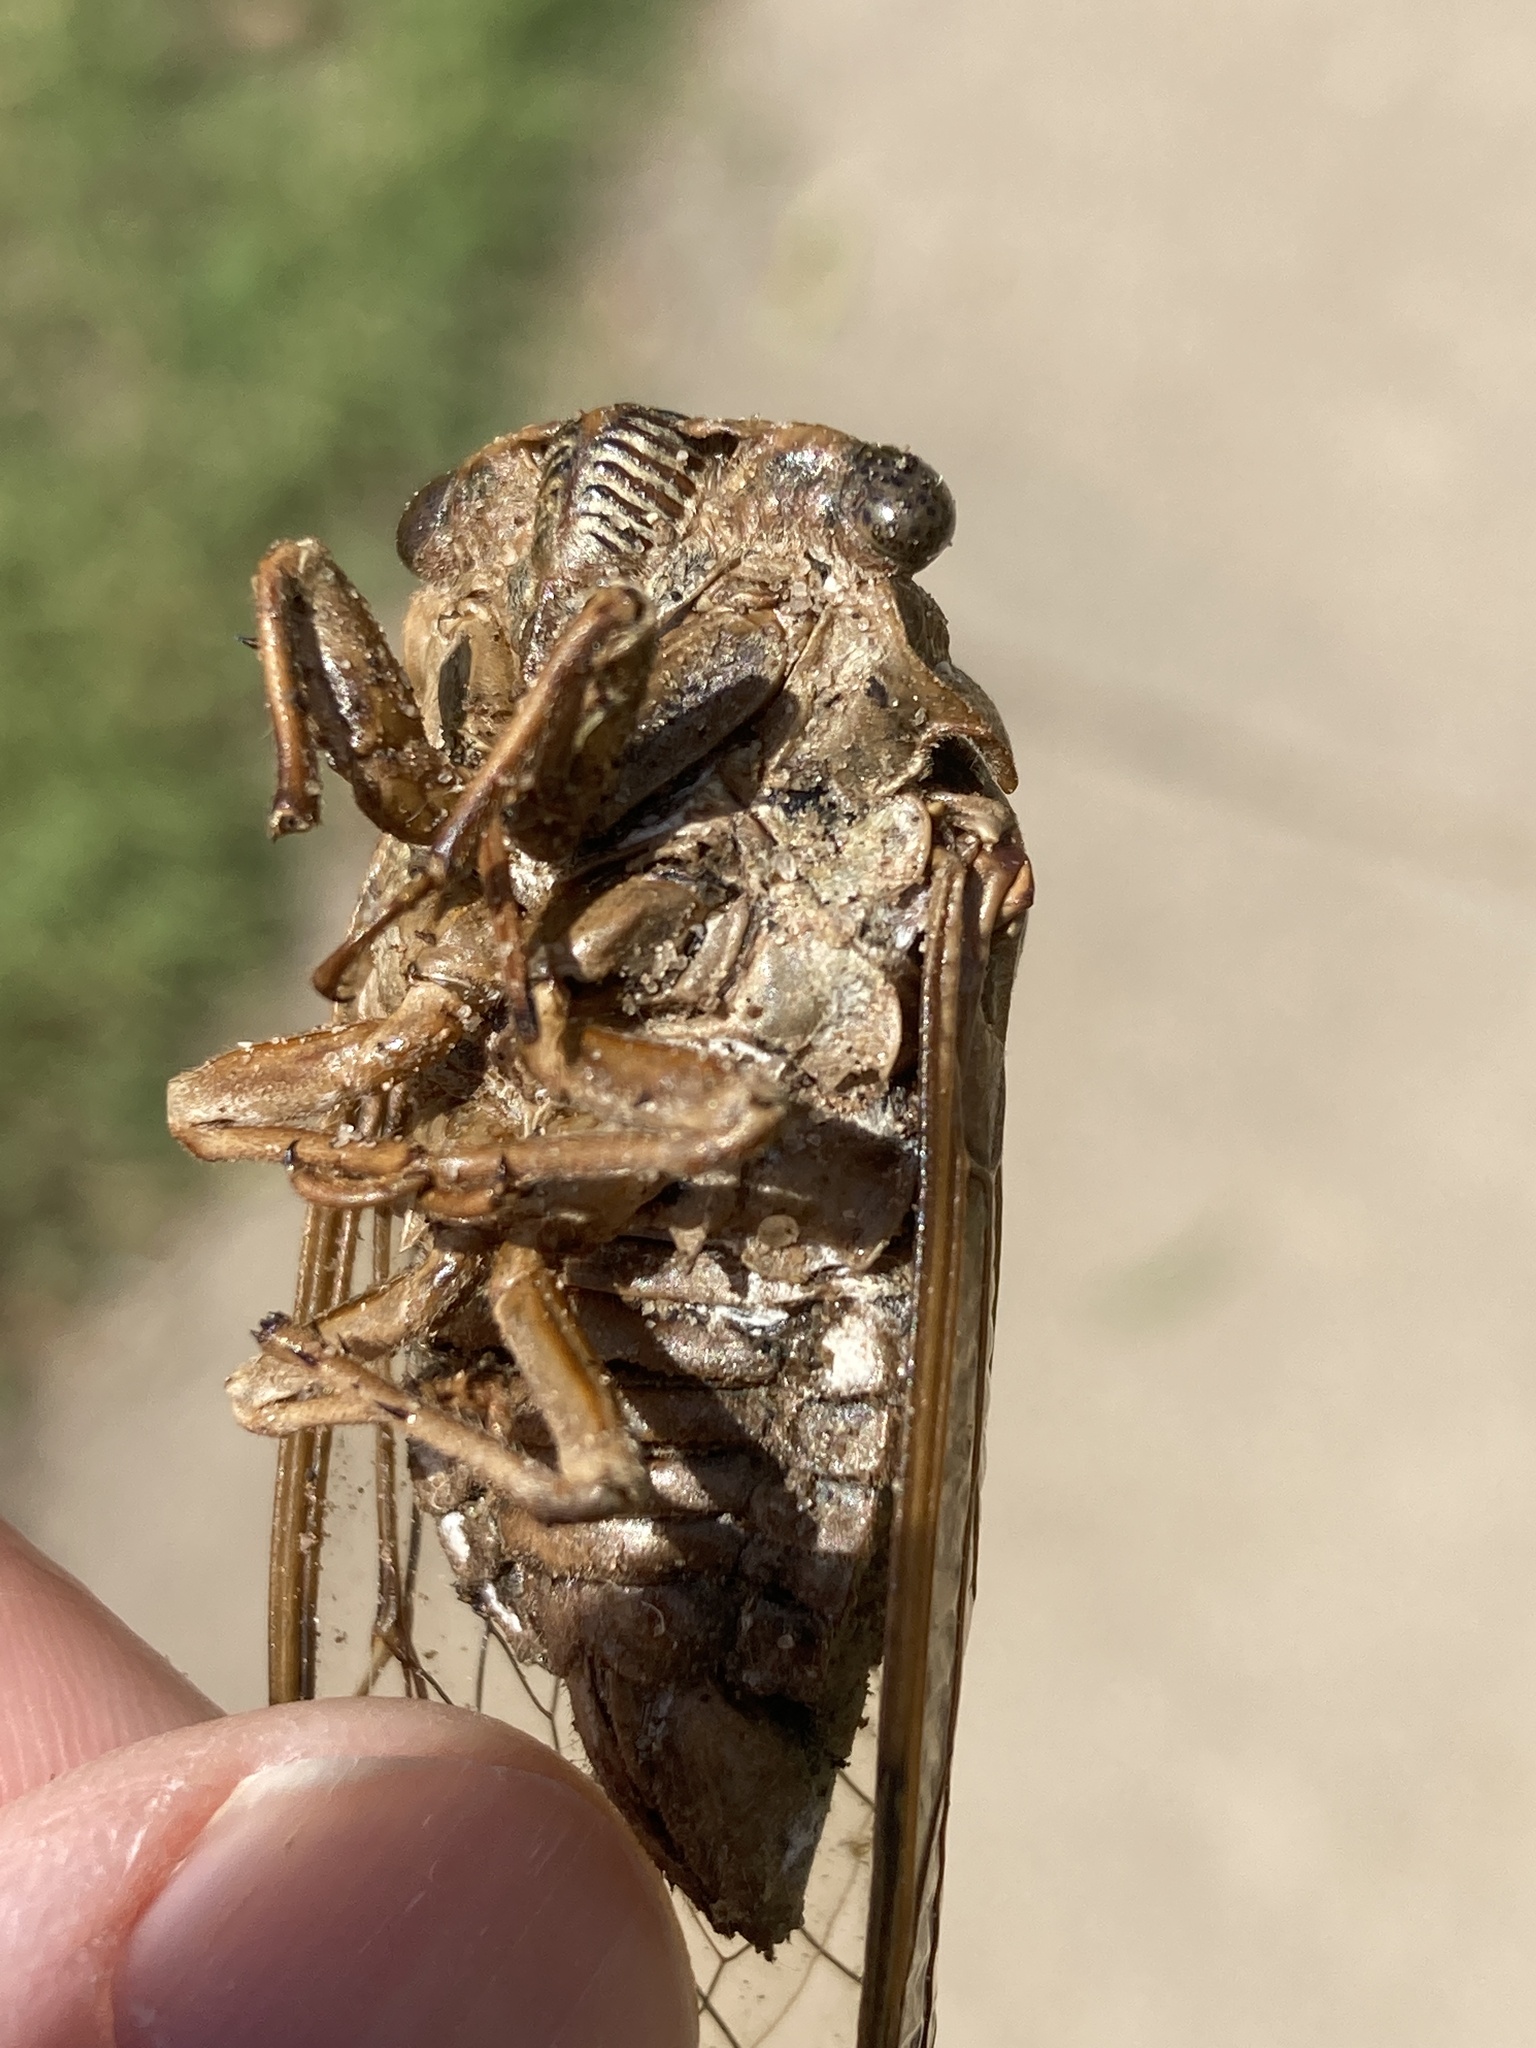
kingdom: Animalia
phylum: Arthropoda
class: Insecta
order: Hemiptera
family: Cicadidae
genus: Megatibicen
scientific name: Megatibicen dealbatus
